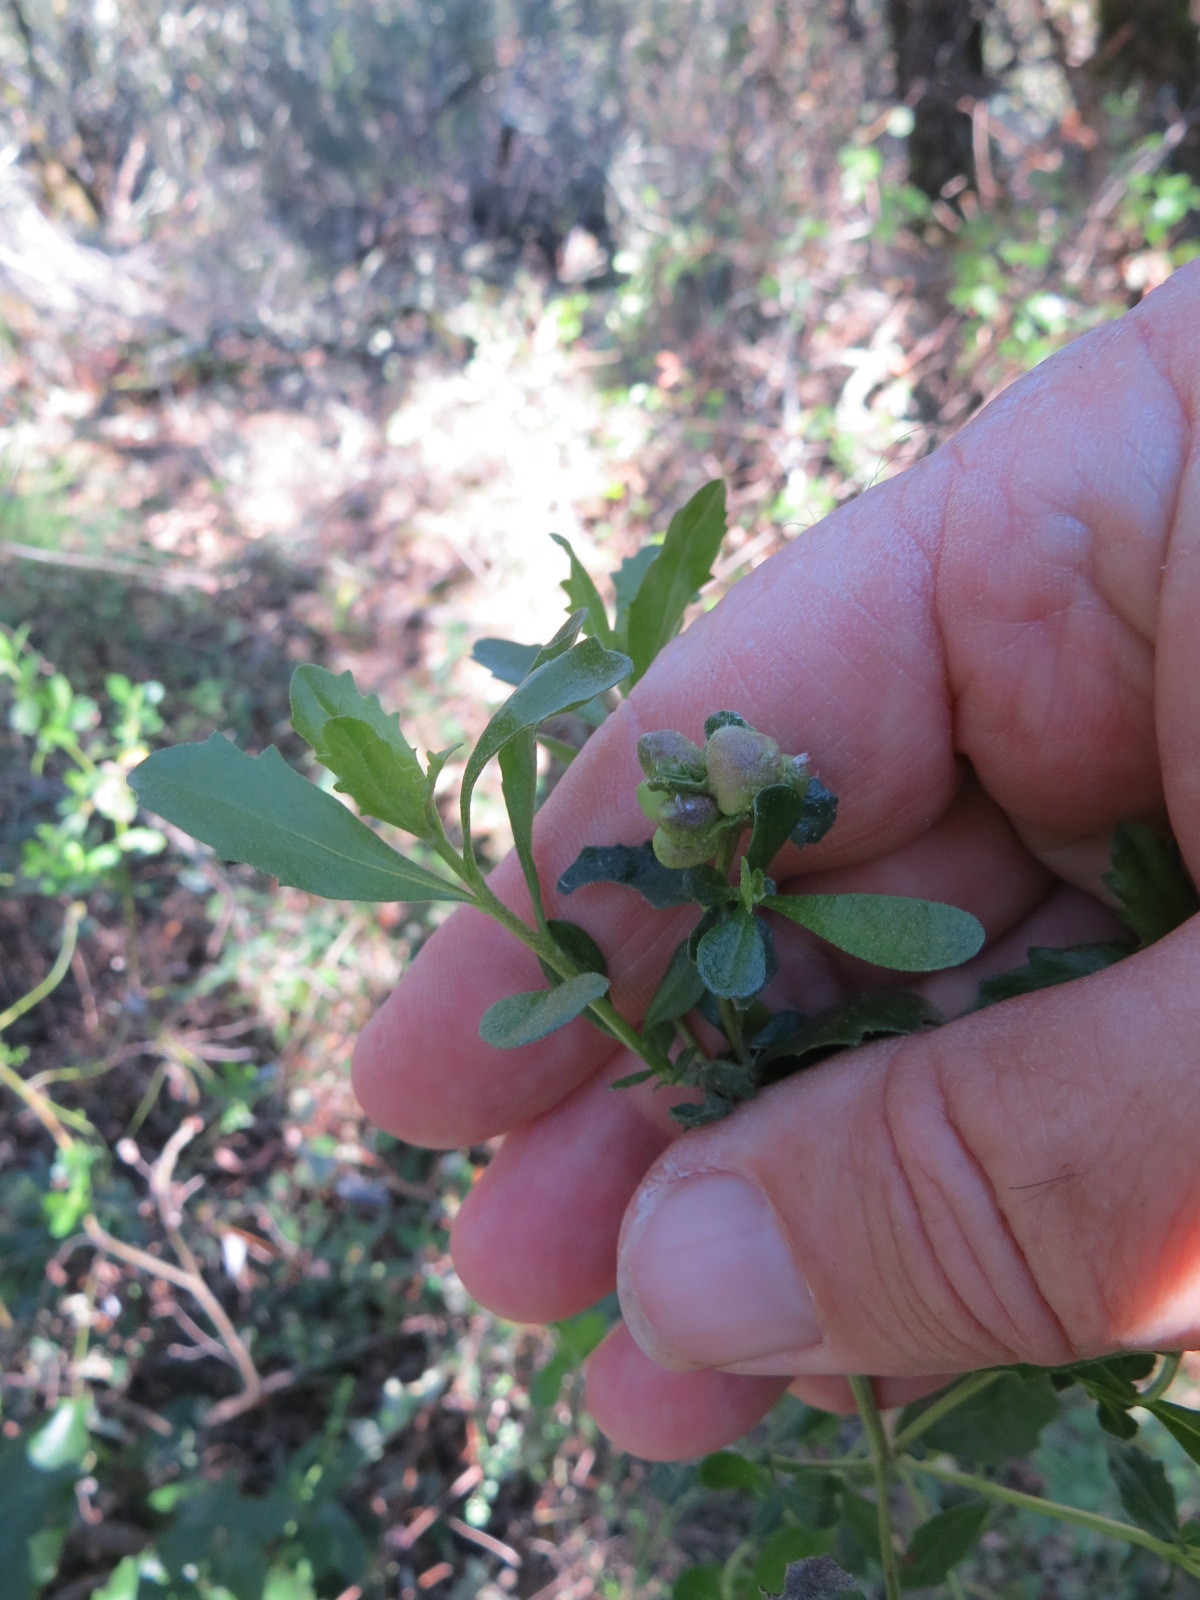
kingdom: Animalia
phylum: Arthropoda
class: Insecta
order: Diptera
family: Cecidomyiidae
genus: Rhopalomyia
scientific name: Rhopalomyia californica
